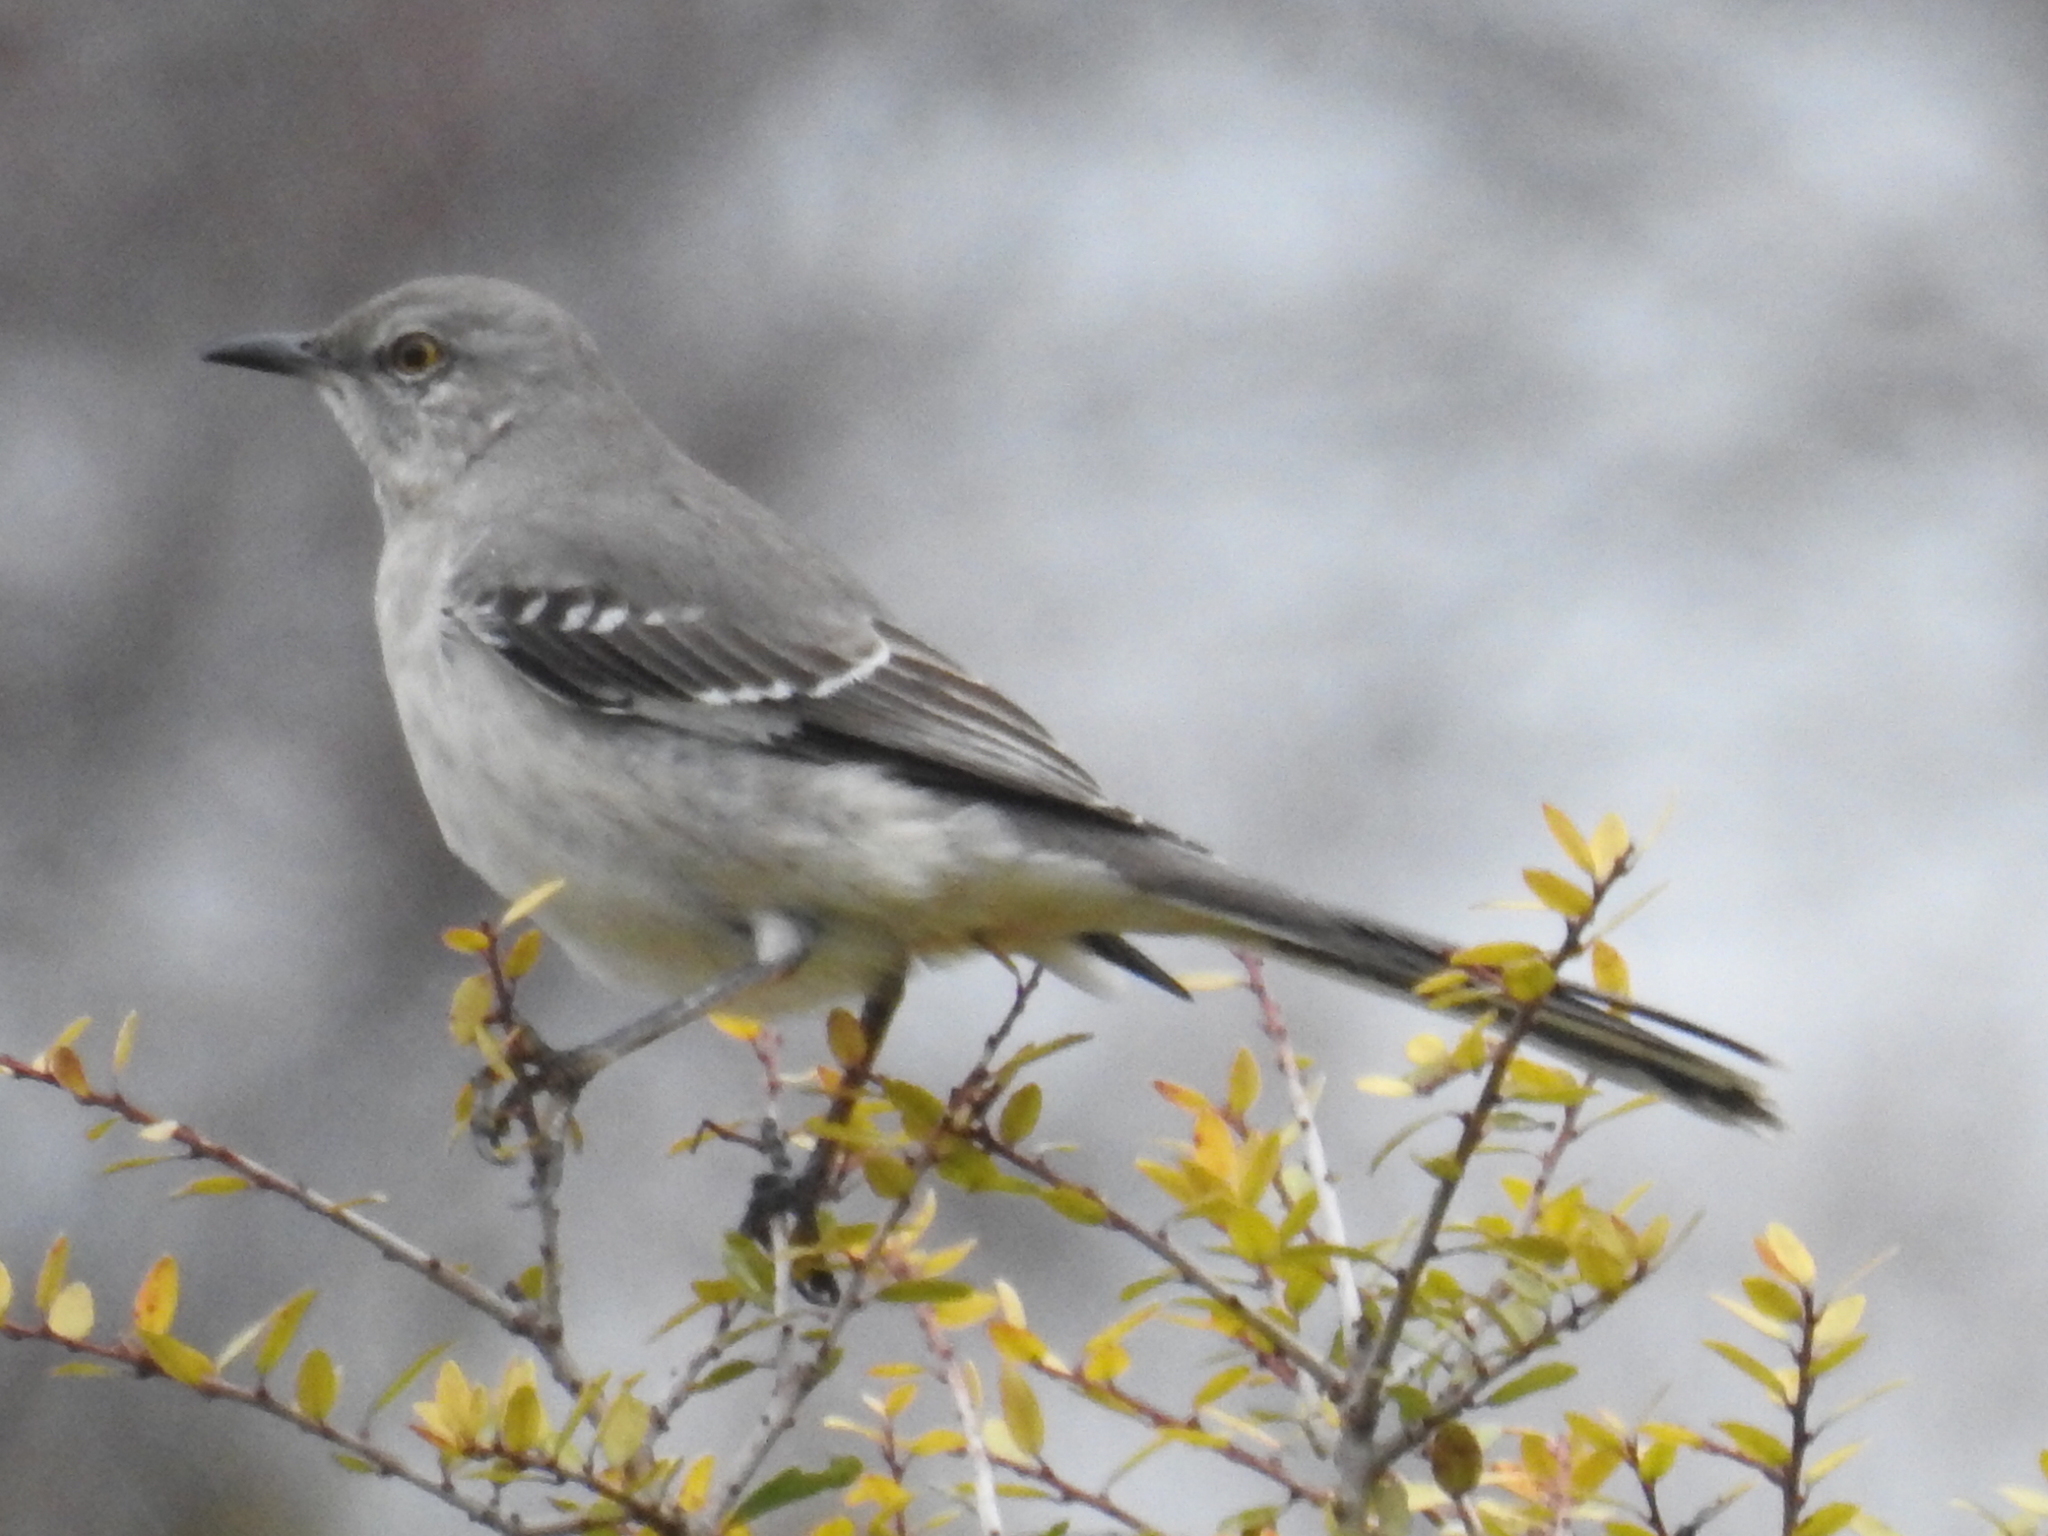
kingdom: Animalia
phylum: Chordata
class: Aves
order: Passeriformes
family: Mimidae
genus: Mimus
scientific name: Mimus polyglottos
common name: Northern mockingbird
